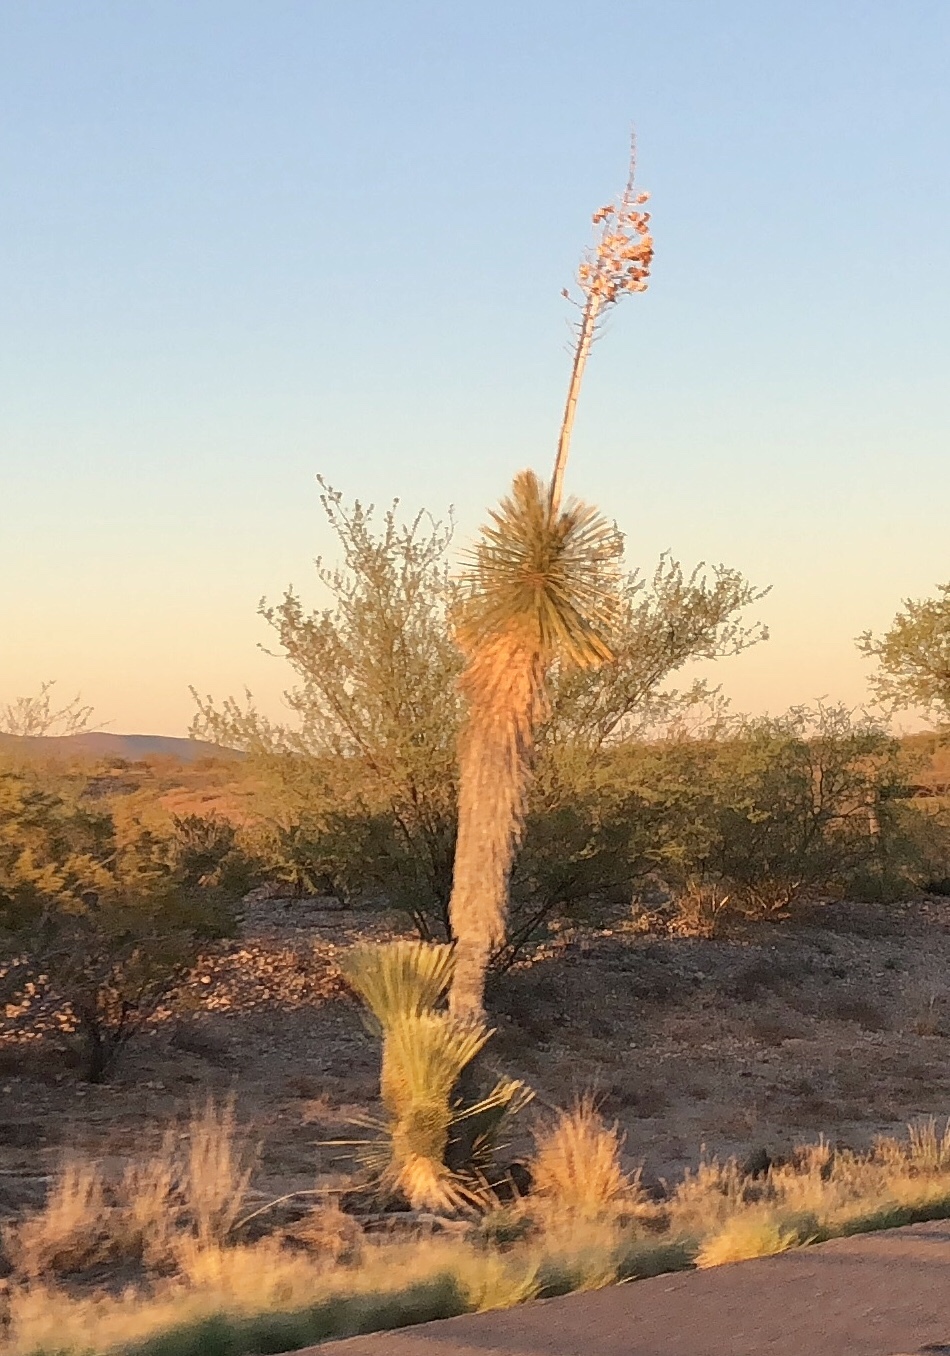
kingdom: Plantae
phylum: Tracheophyta
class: Liliopsida
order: Asparagales
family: Asparagaceae
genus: Yucca
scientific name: Yucca elata
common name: Palmella
